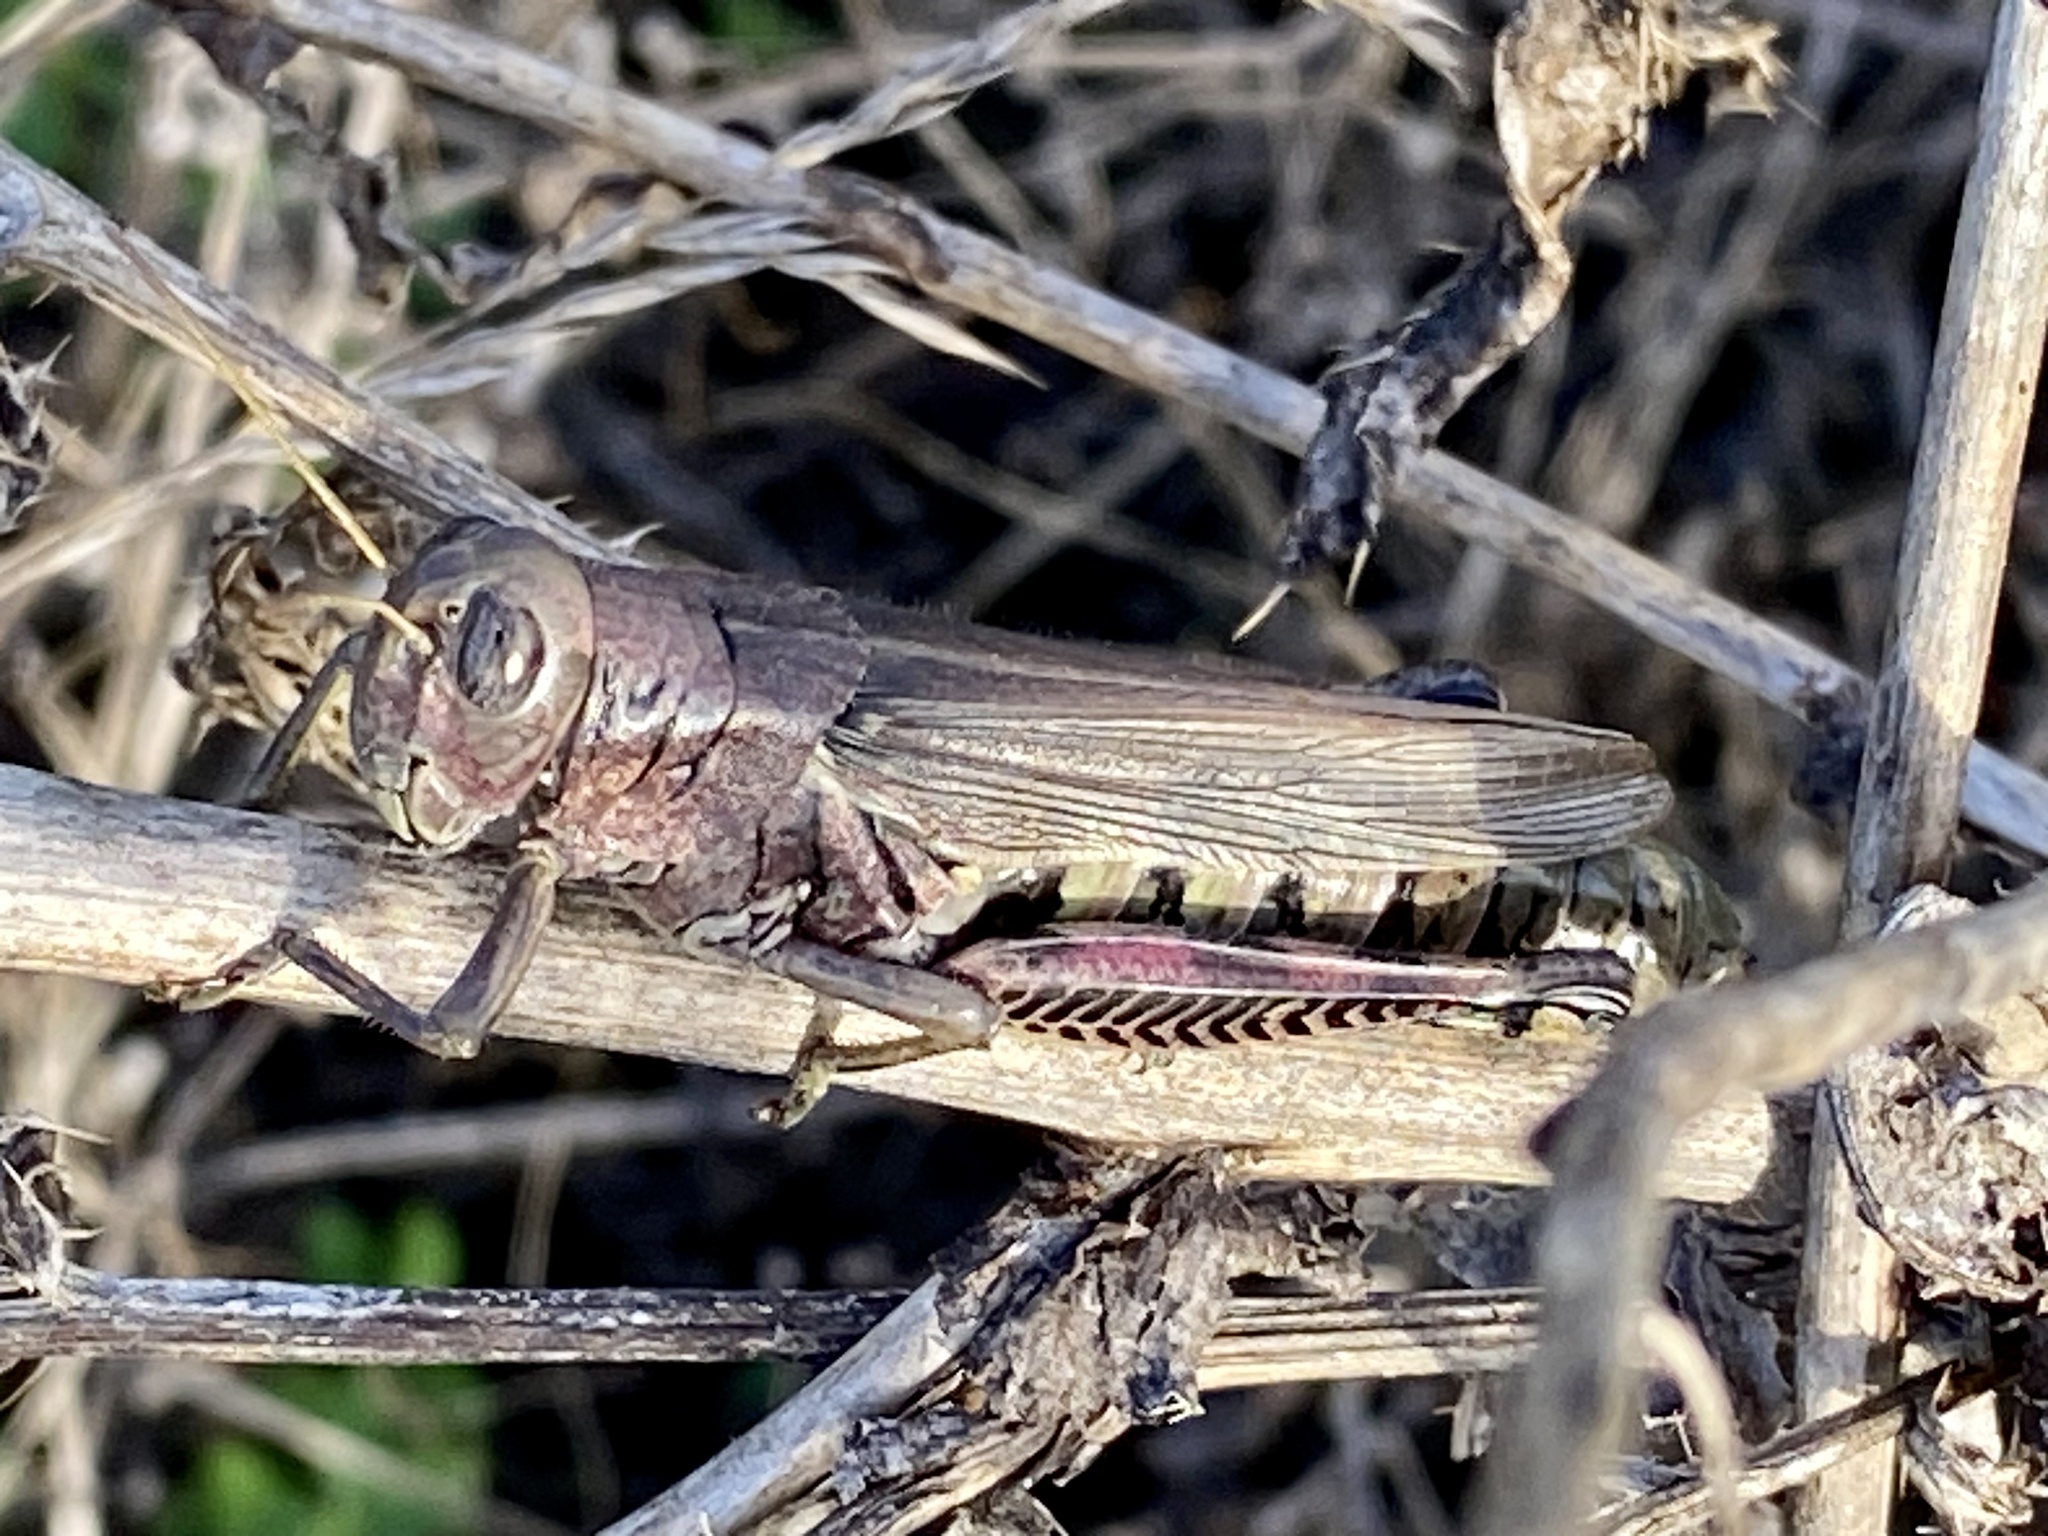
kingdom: Animalia
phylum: Arthropoda
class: Insecta
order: Orthoptera
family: Acrididae
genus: Melanoplus
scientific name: Melanoplus differentialis
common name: Differential grasshopper
